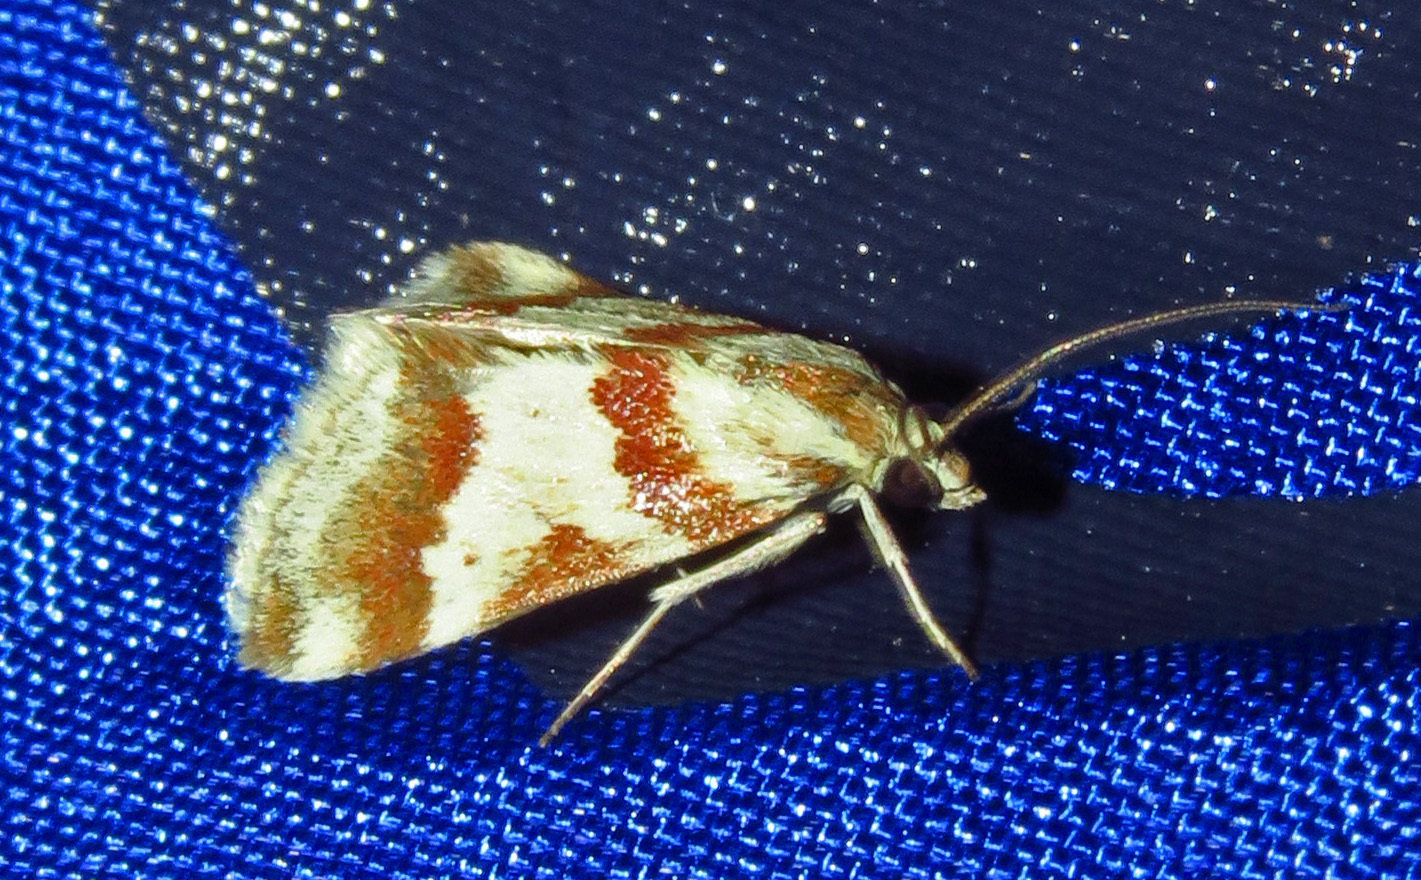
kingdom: Animalia
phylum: Arthropoda
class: Insecta
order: Lepidoptera
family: Crambidae
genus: Noctuelia
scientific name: Noctuelia Mimoschinia rufofascialis
